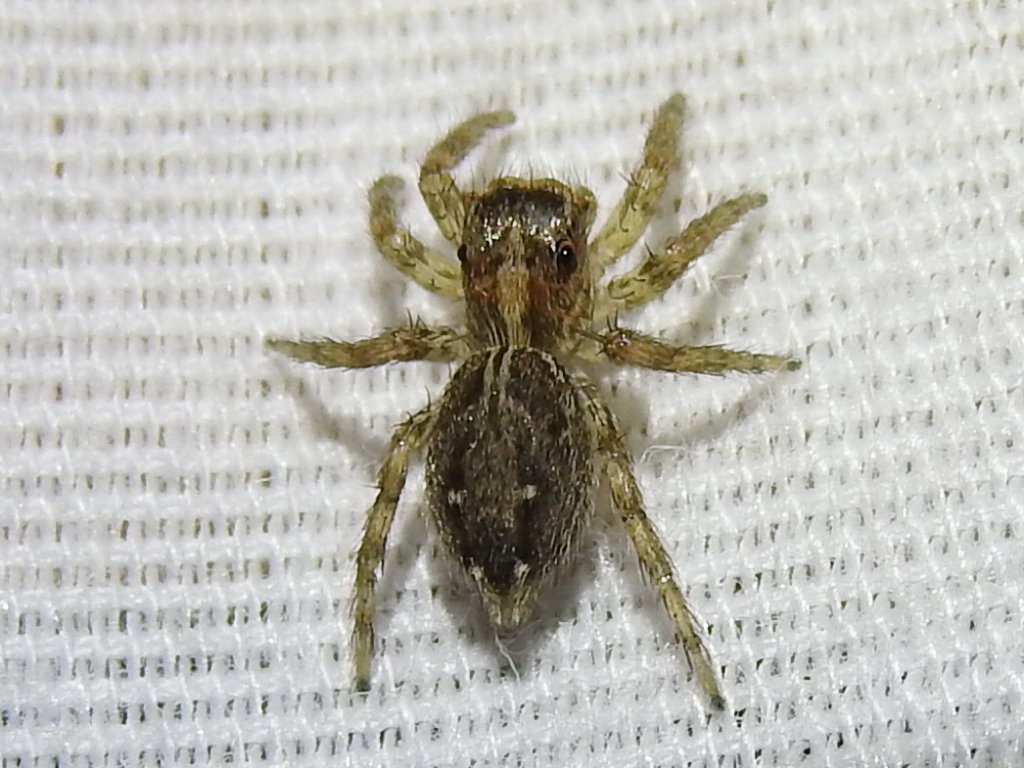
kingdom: Animalia
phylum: Arthropoda
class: Arachnida
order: Araneae
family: Salticidae
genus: Plexippus
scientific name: Plexippus paykulli
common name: Pantropical jumper
